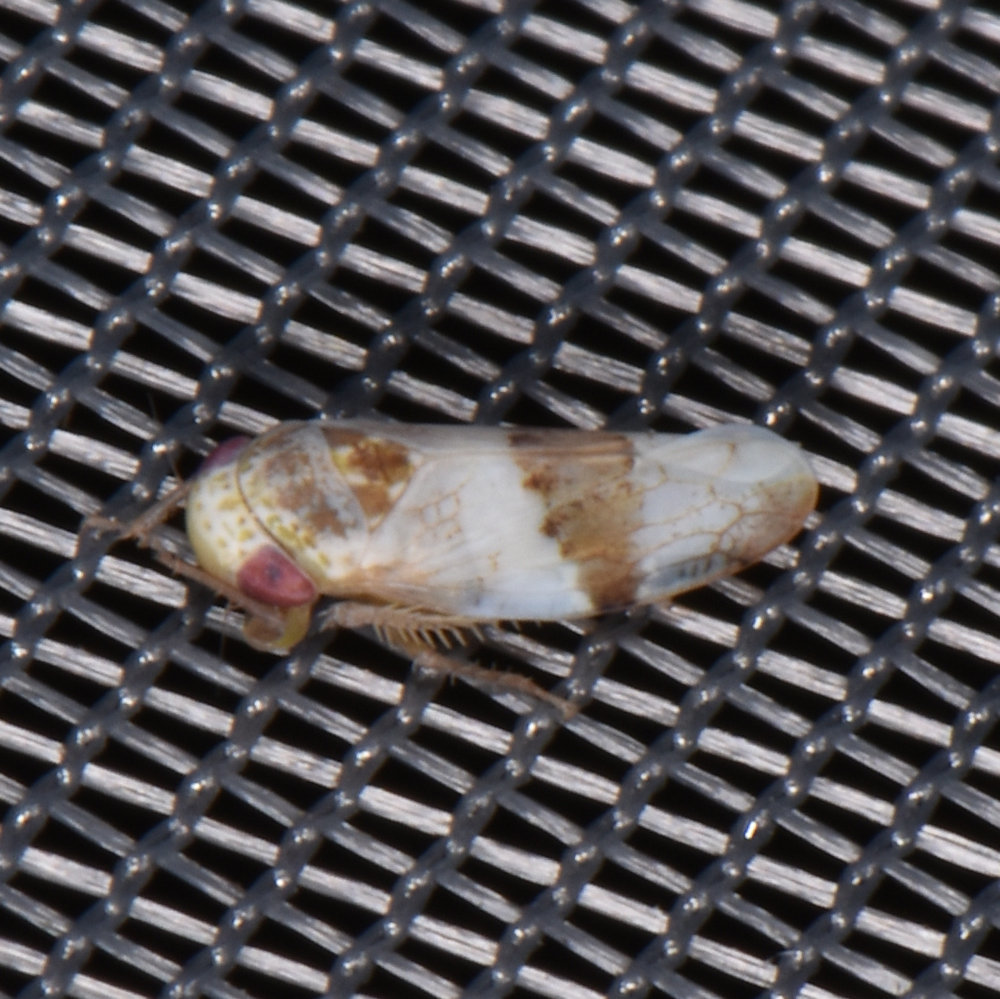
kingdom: Animalia
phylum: Arthropoda
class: Insecta
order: Hemiptera
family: Cicadellidae
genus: Norvellina
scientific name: Norvellina seminuda
